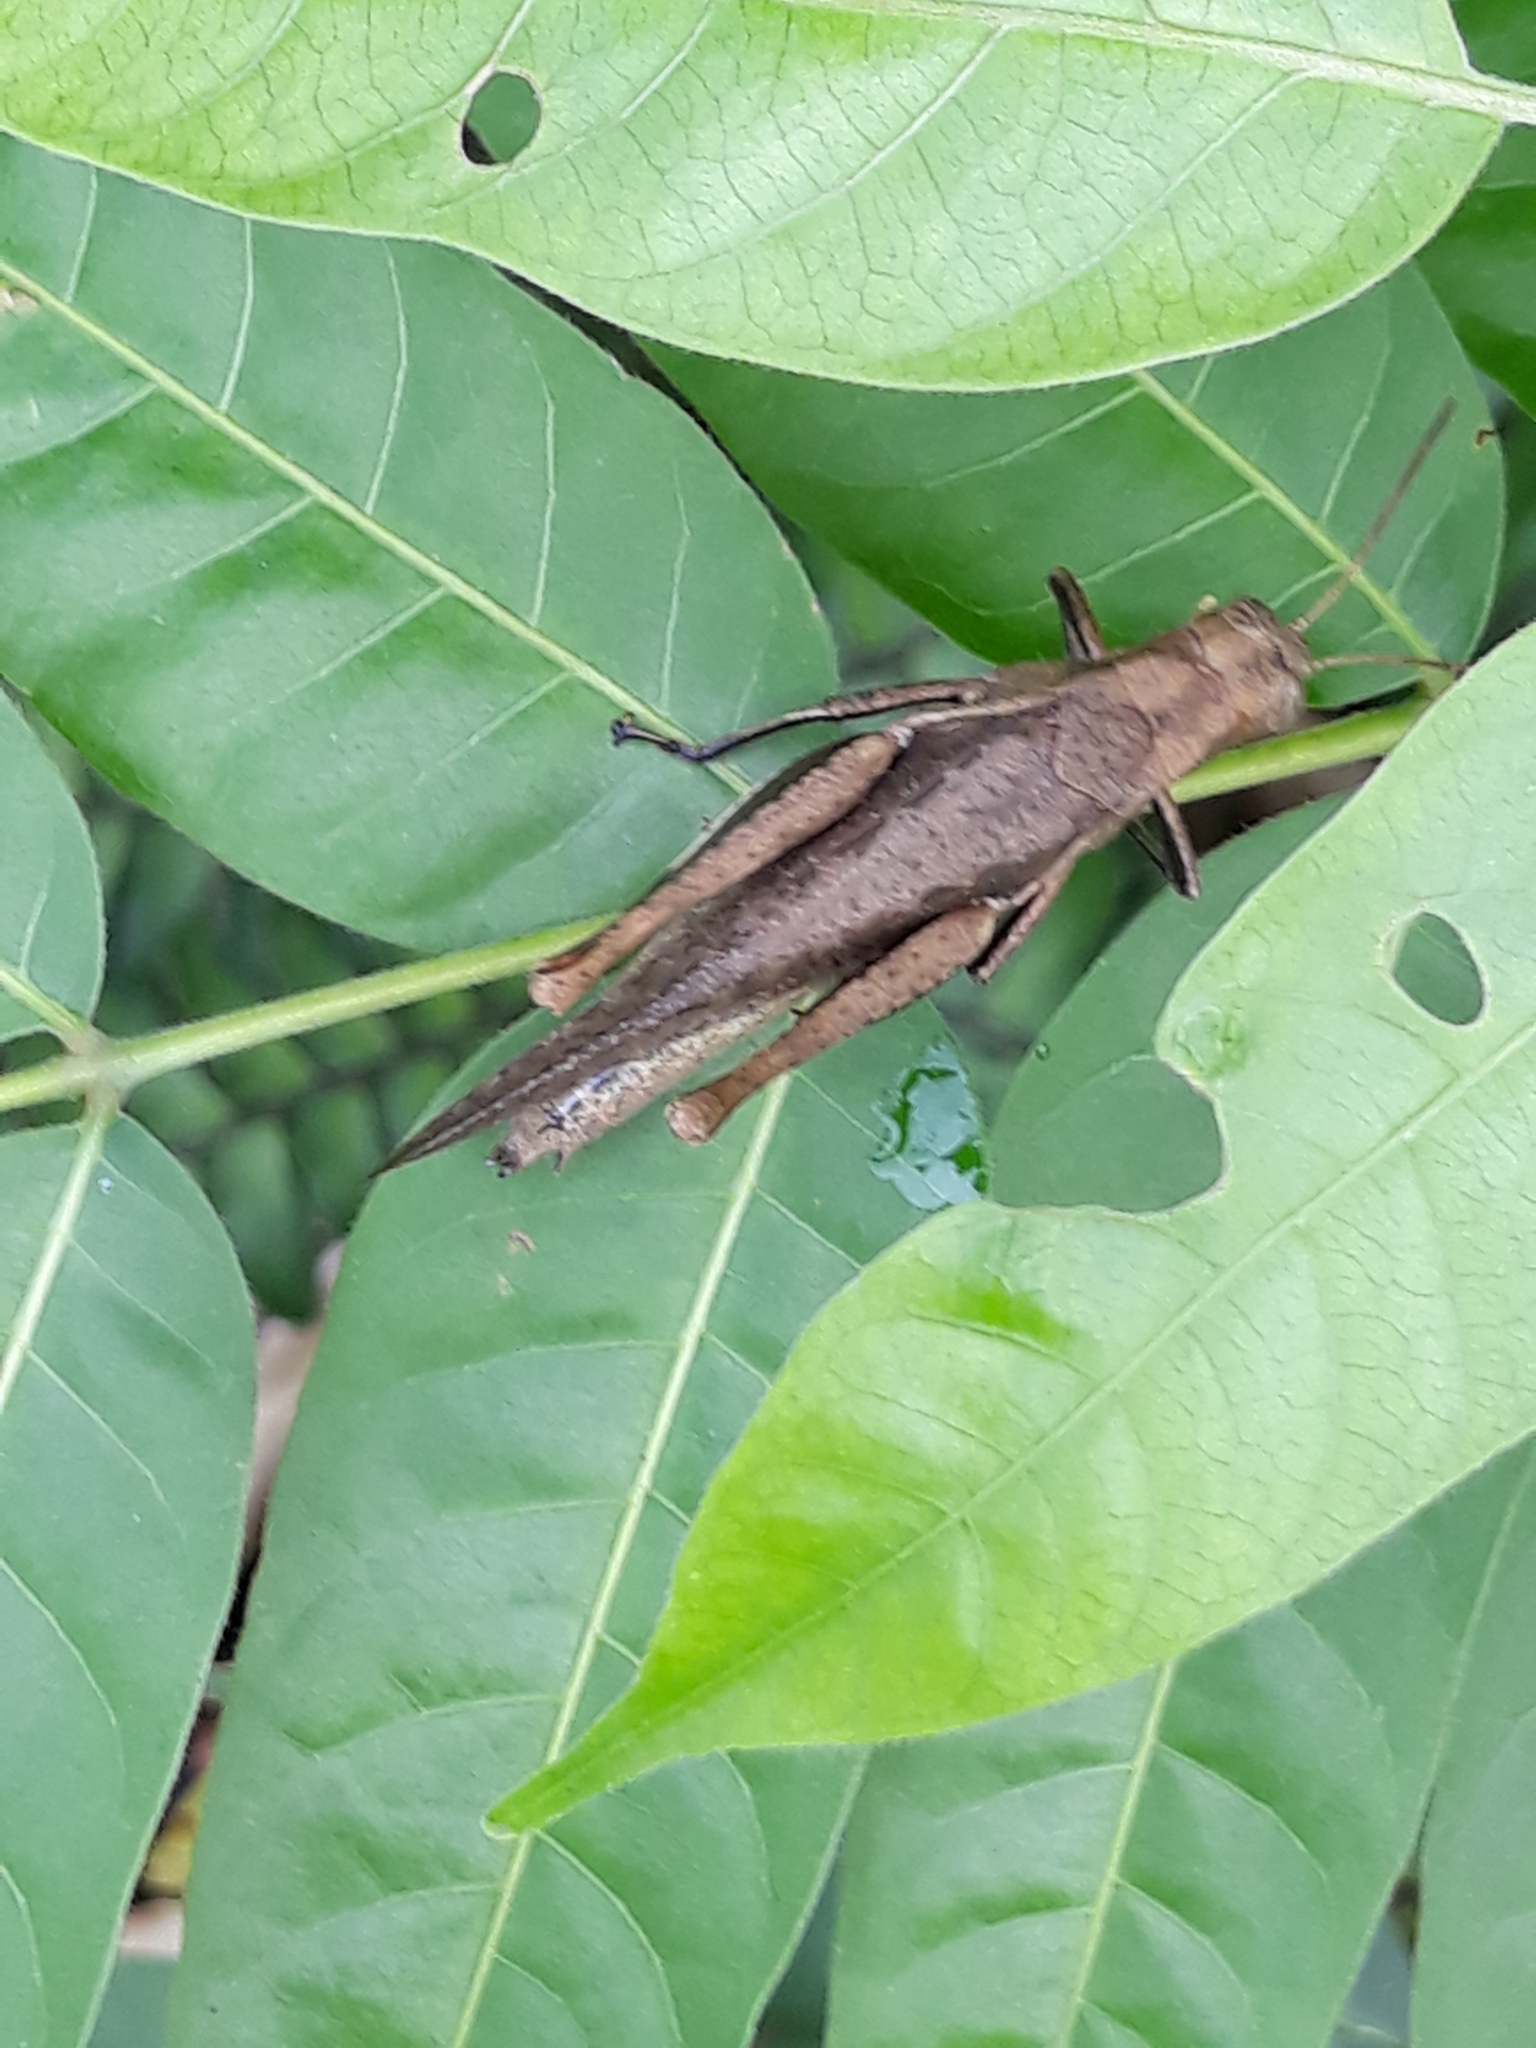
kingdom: Animalia
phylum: Arthropoda
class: Insecta
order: Orthoptera
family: Acrididae
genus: Abracris
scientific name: Abracris flavolineata
